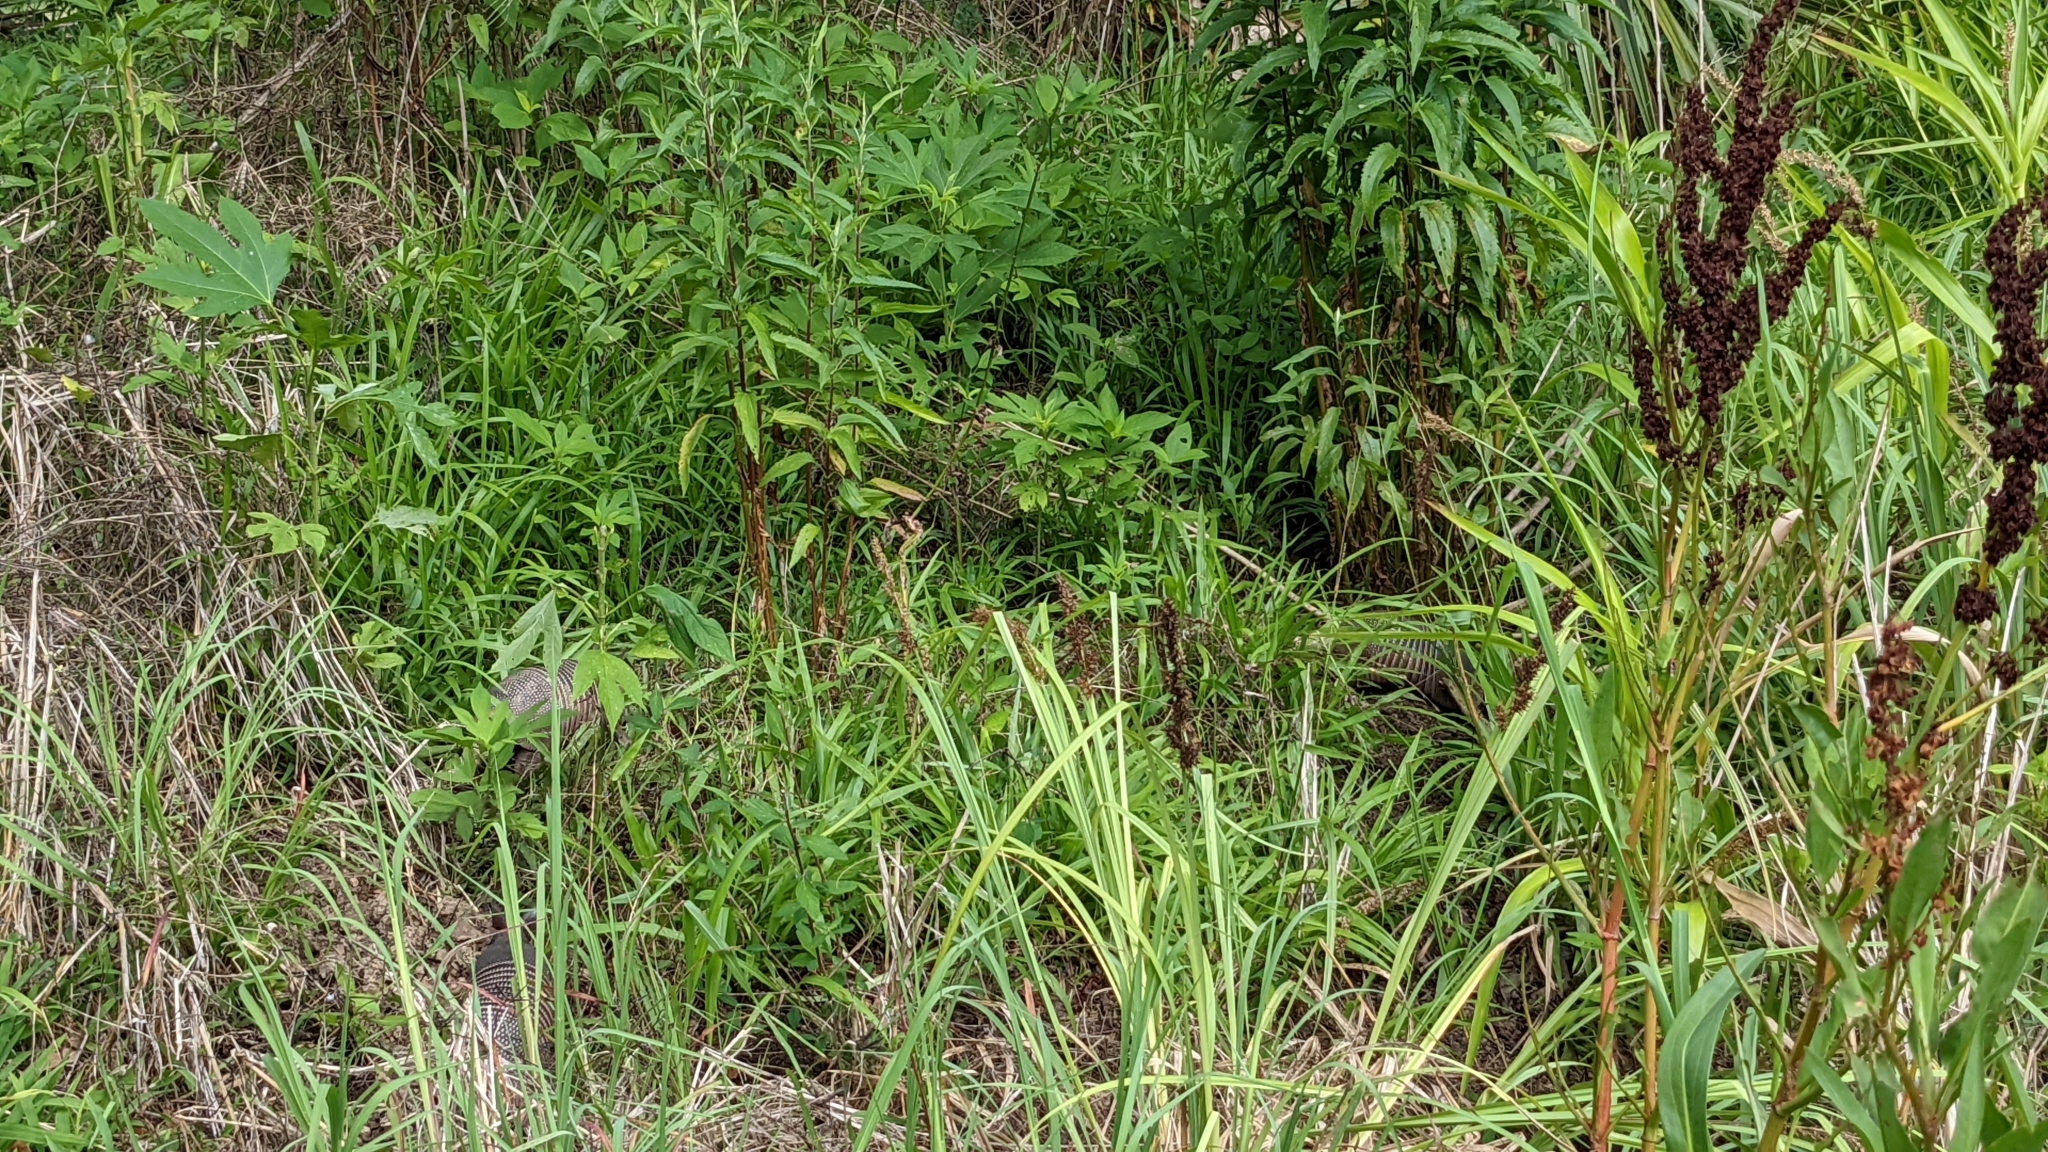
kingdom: Animalia
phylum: Chordata
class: Mammalia
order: Cingulata
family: Dasypodidae
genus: Dasypus
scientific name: Dasypus novemcinctus
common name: Nine-banded armadillo
